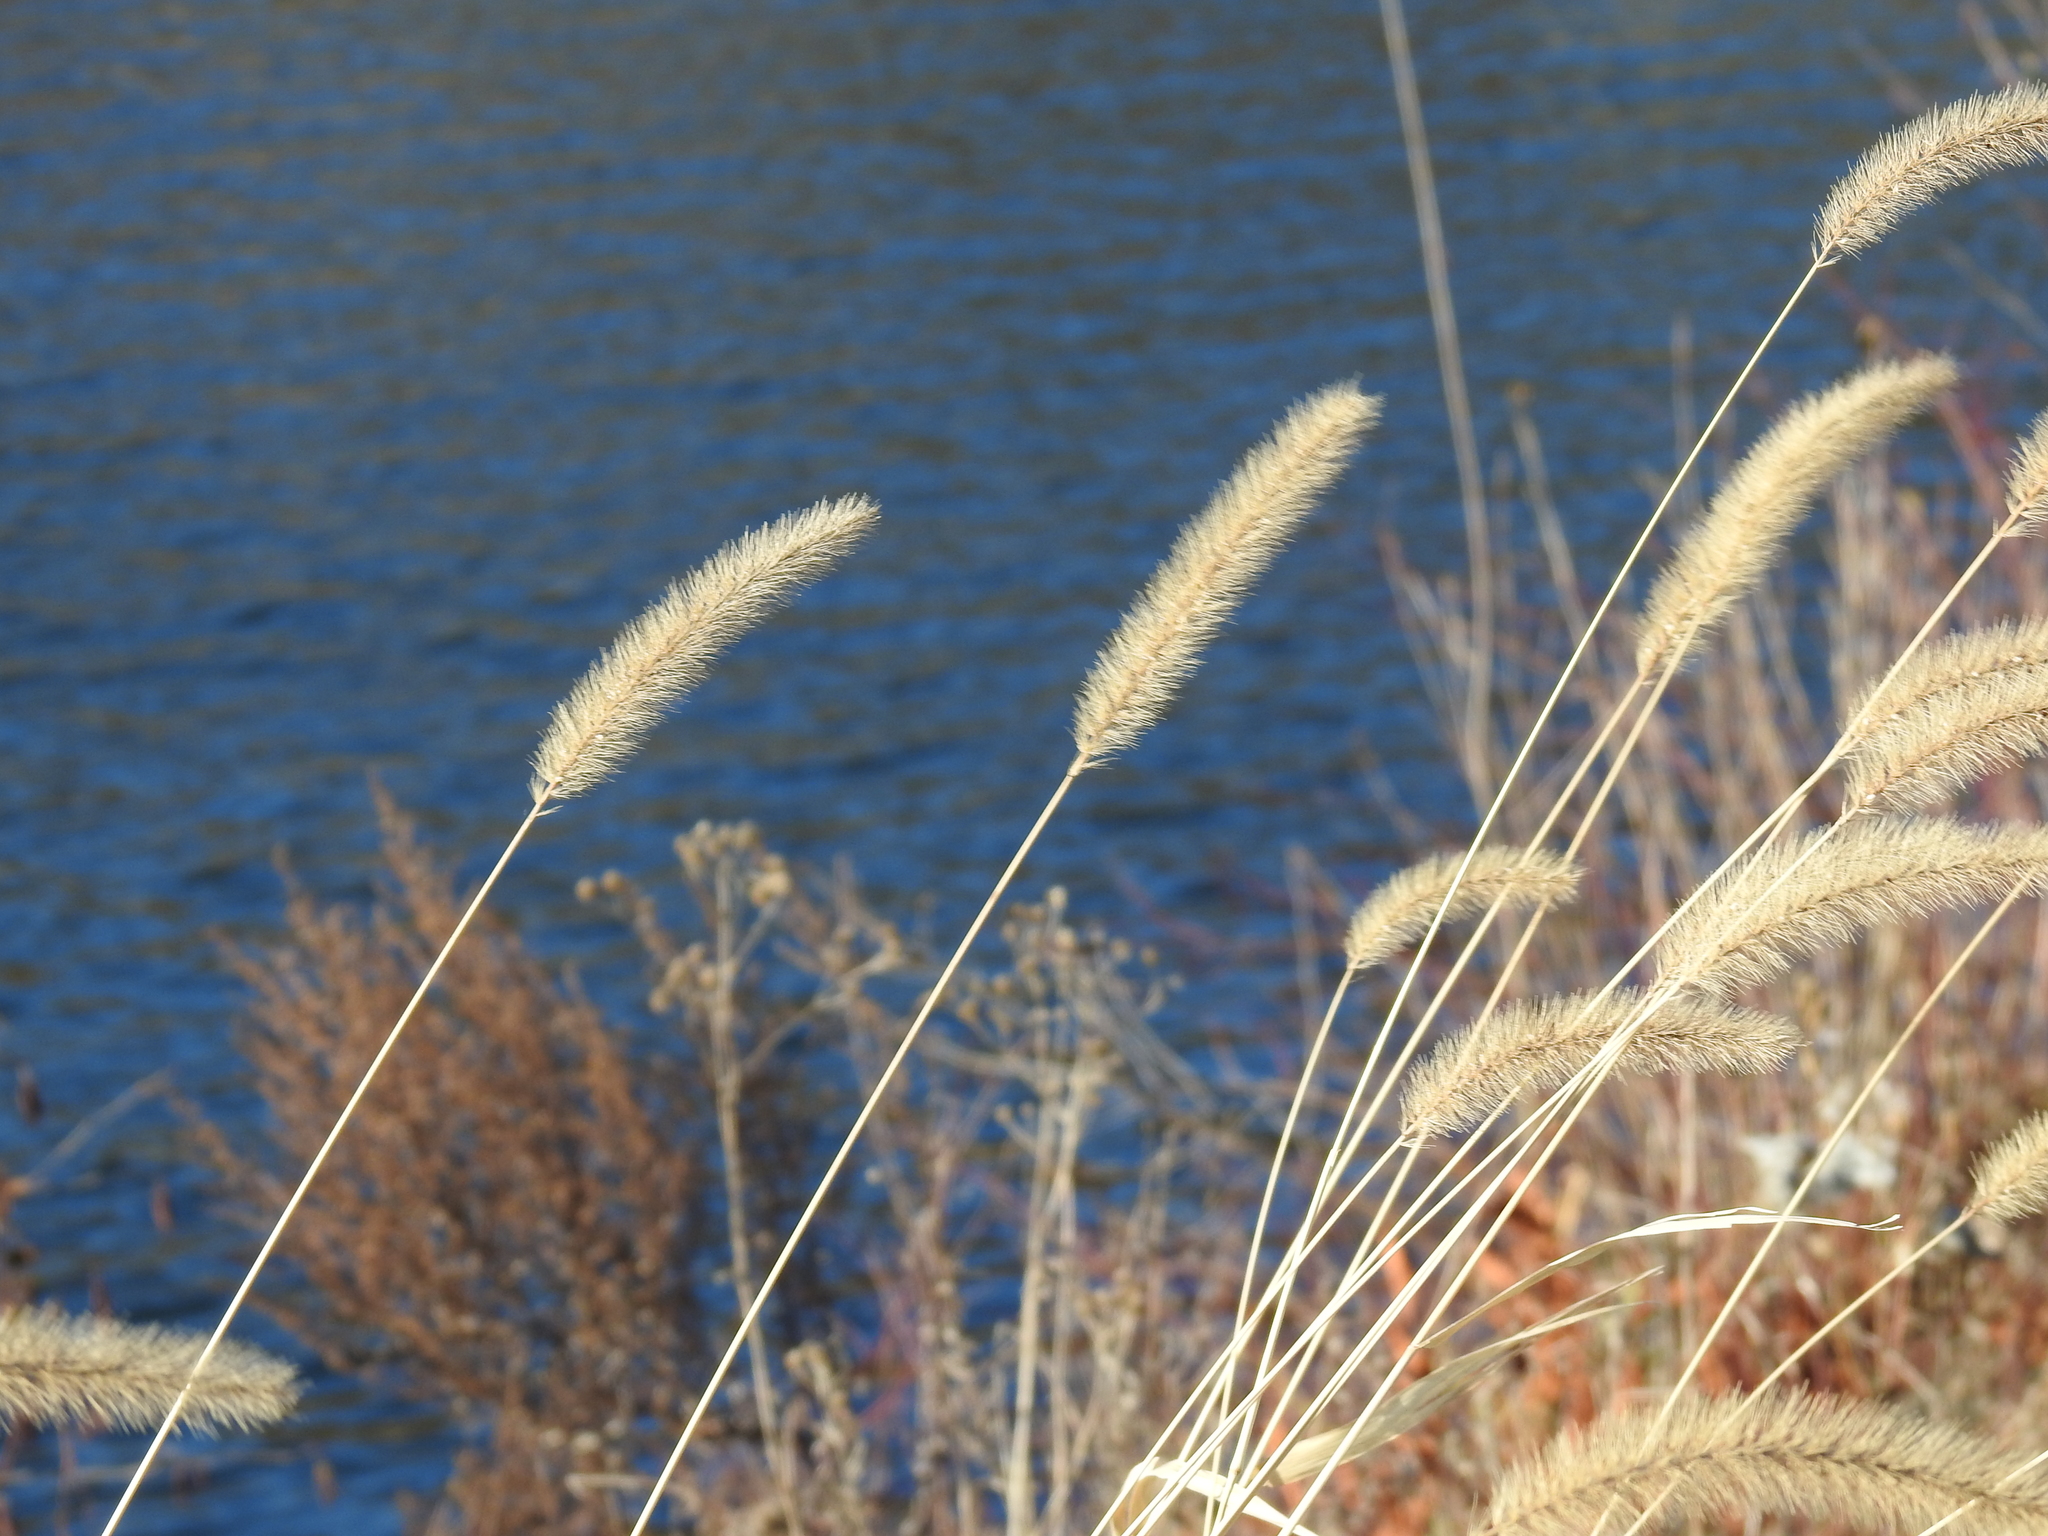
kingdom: Plantae
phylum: Tracheophyta
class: Liliopsida
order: Poales
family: Poaceae
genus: Setaria
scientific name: Setaria faberi
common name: Nodding bristle-grass
